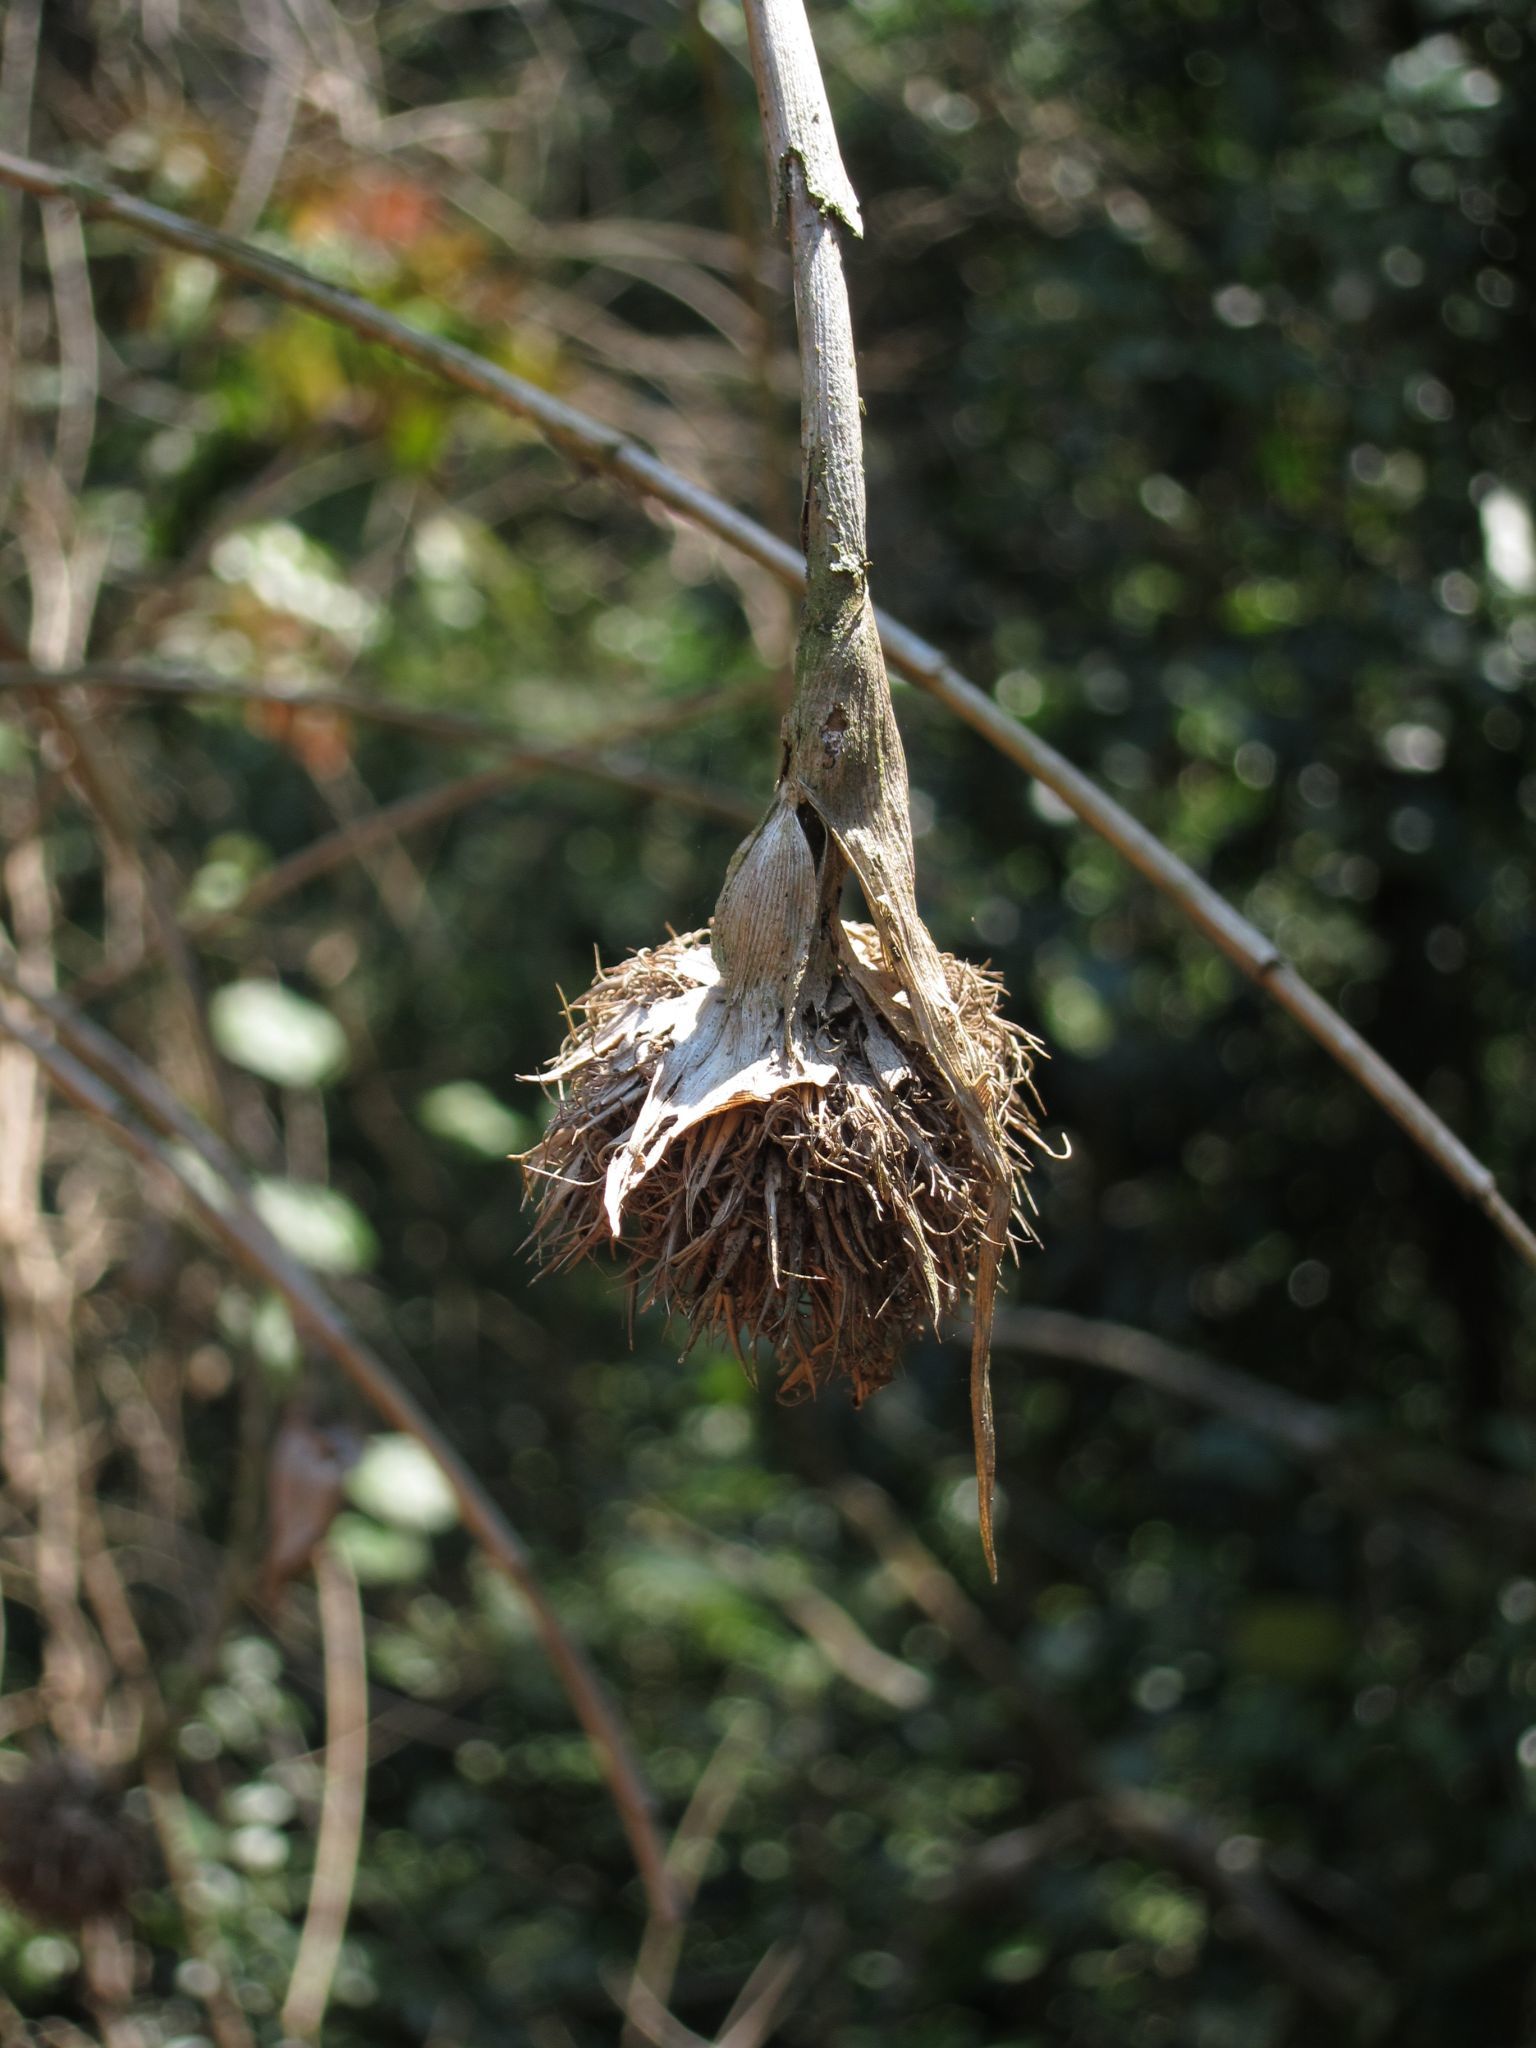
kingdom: Plantae
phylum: Tracheophyta
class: Liliopsida
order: Poales
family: Poaceae
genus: Sokinochloa
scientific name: Sokinochloa australis
